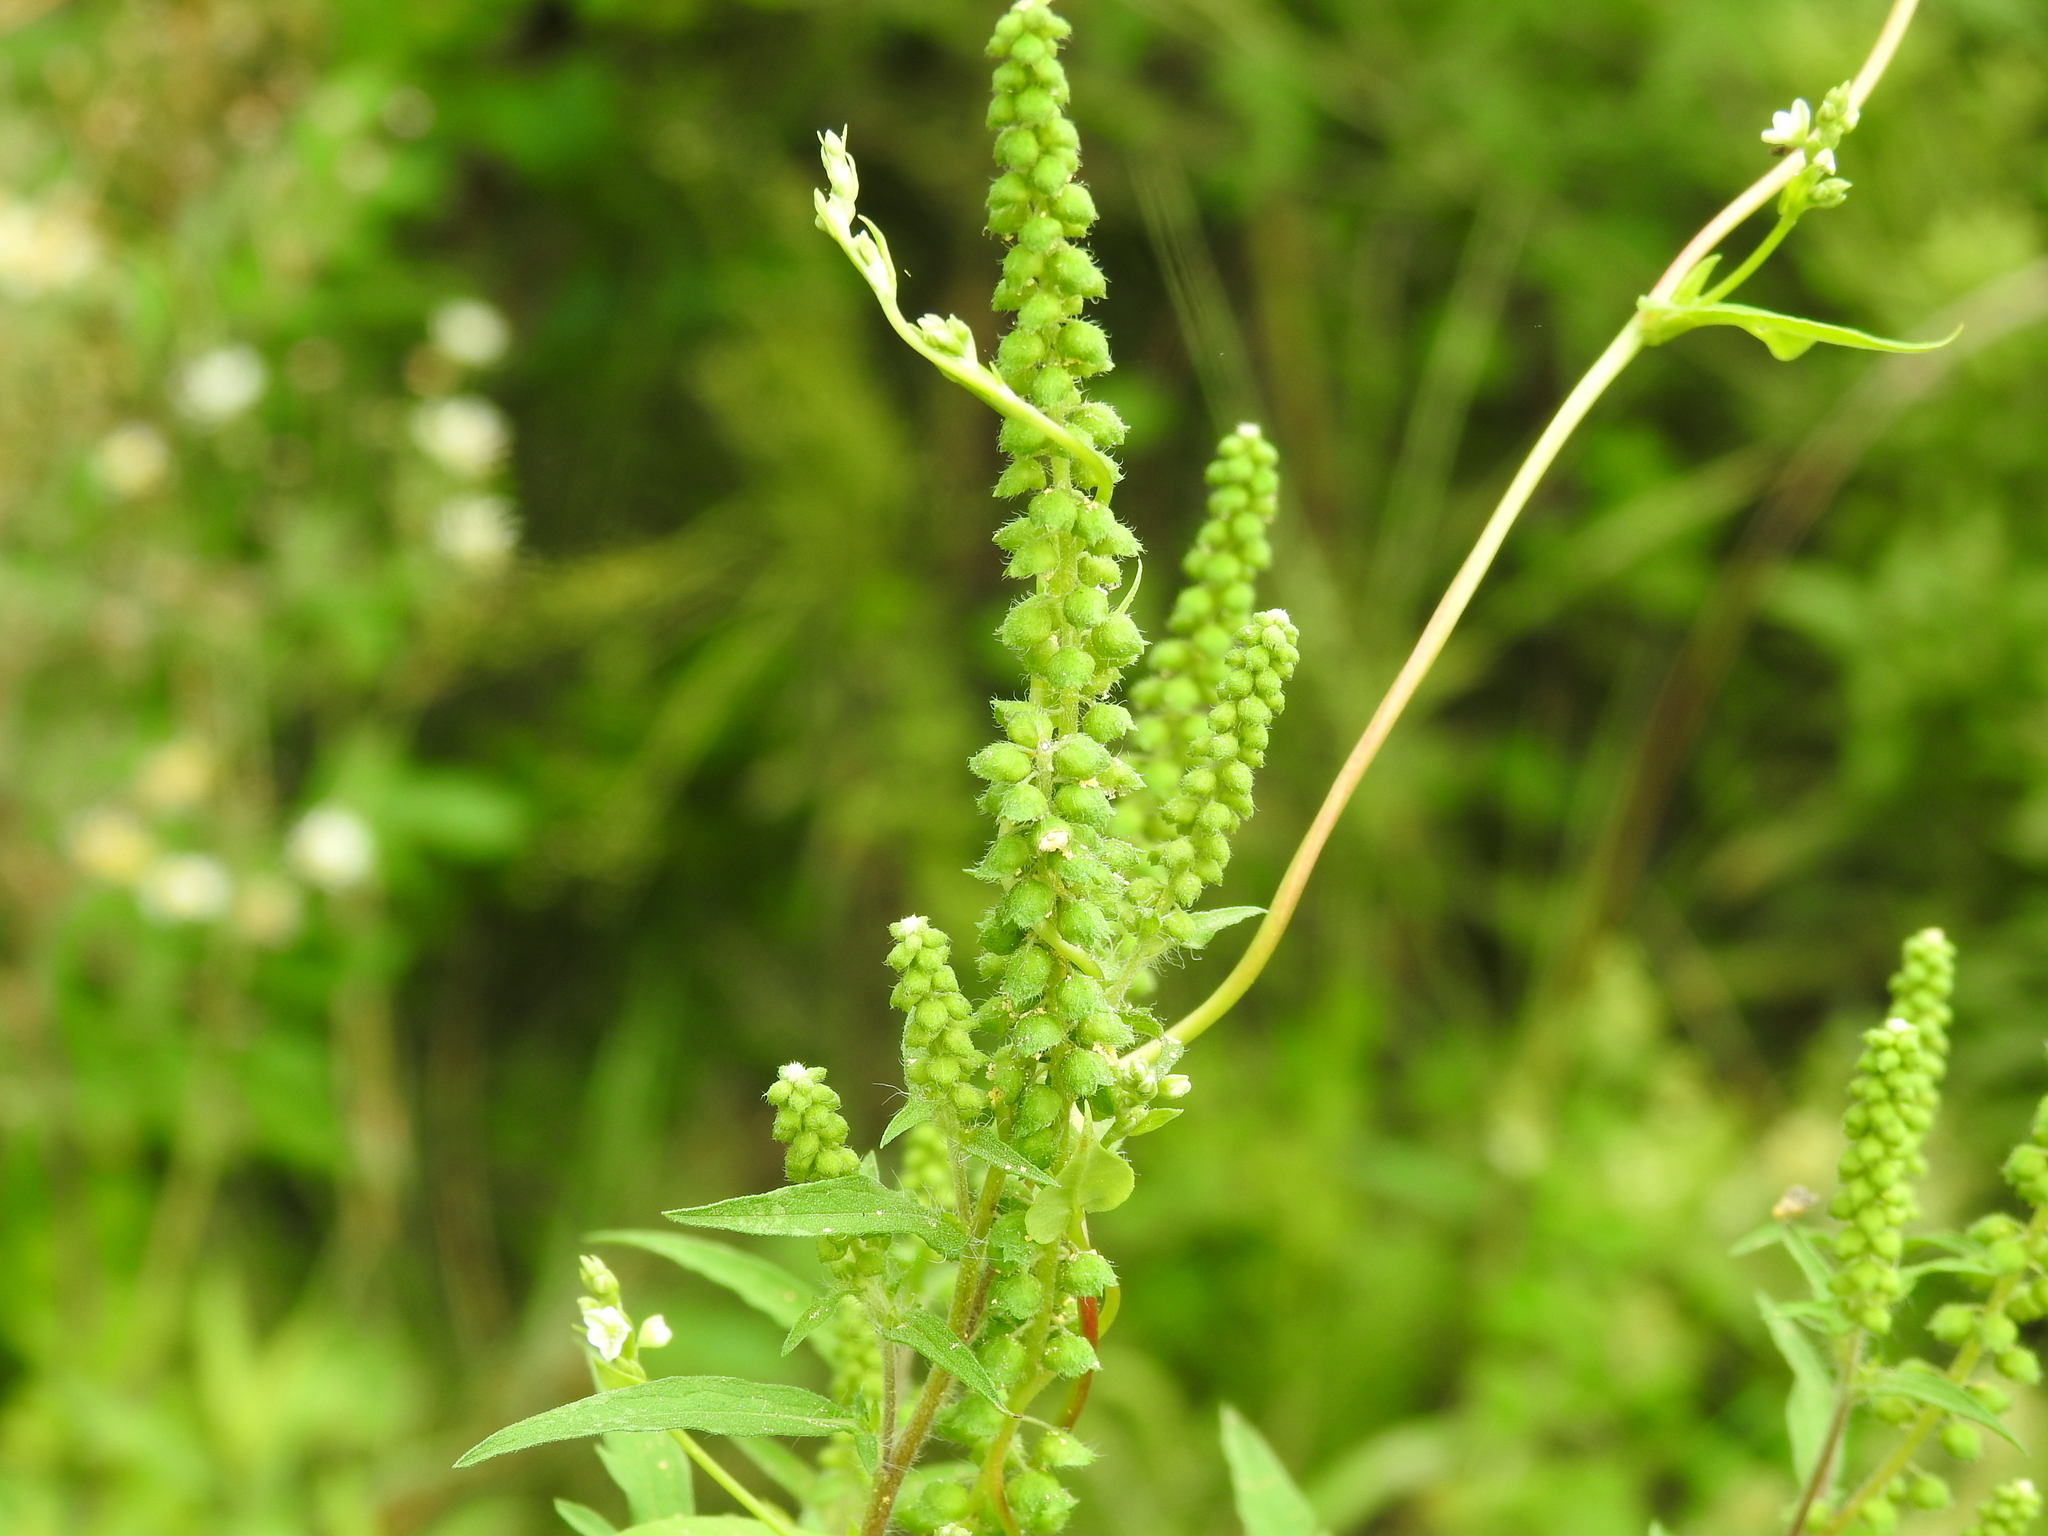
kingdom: Plantae
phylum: Tracheophyta
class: Magnoliopsida
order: Asterales
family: Asteraceae
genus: Ambrosia
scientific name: Ambrosia artemisiifolia
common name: Annual ragweed
